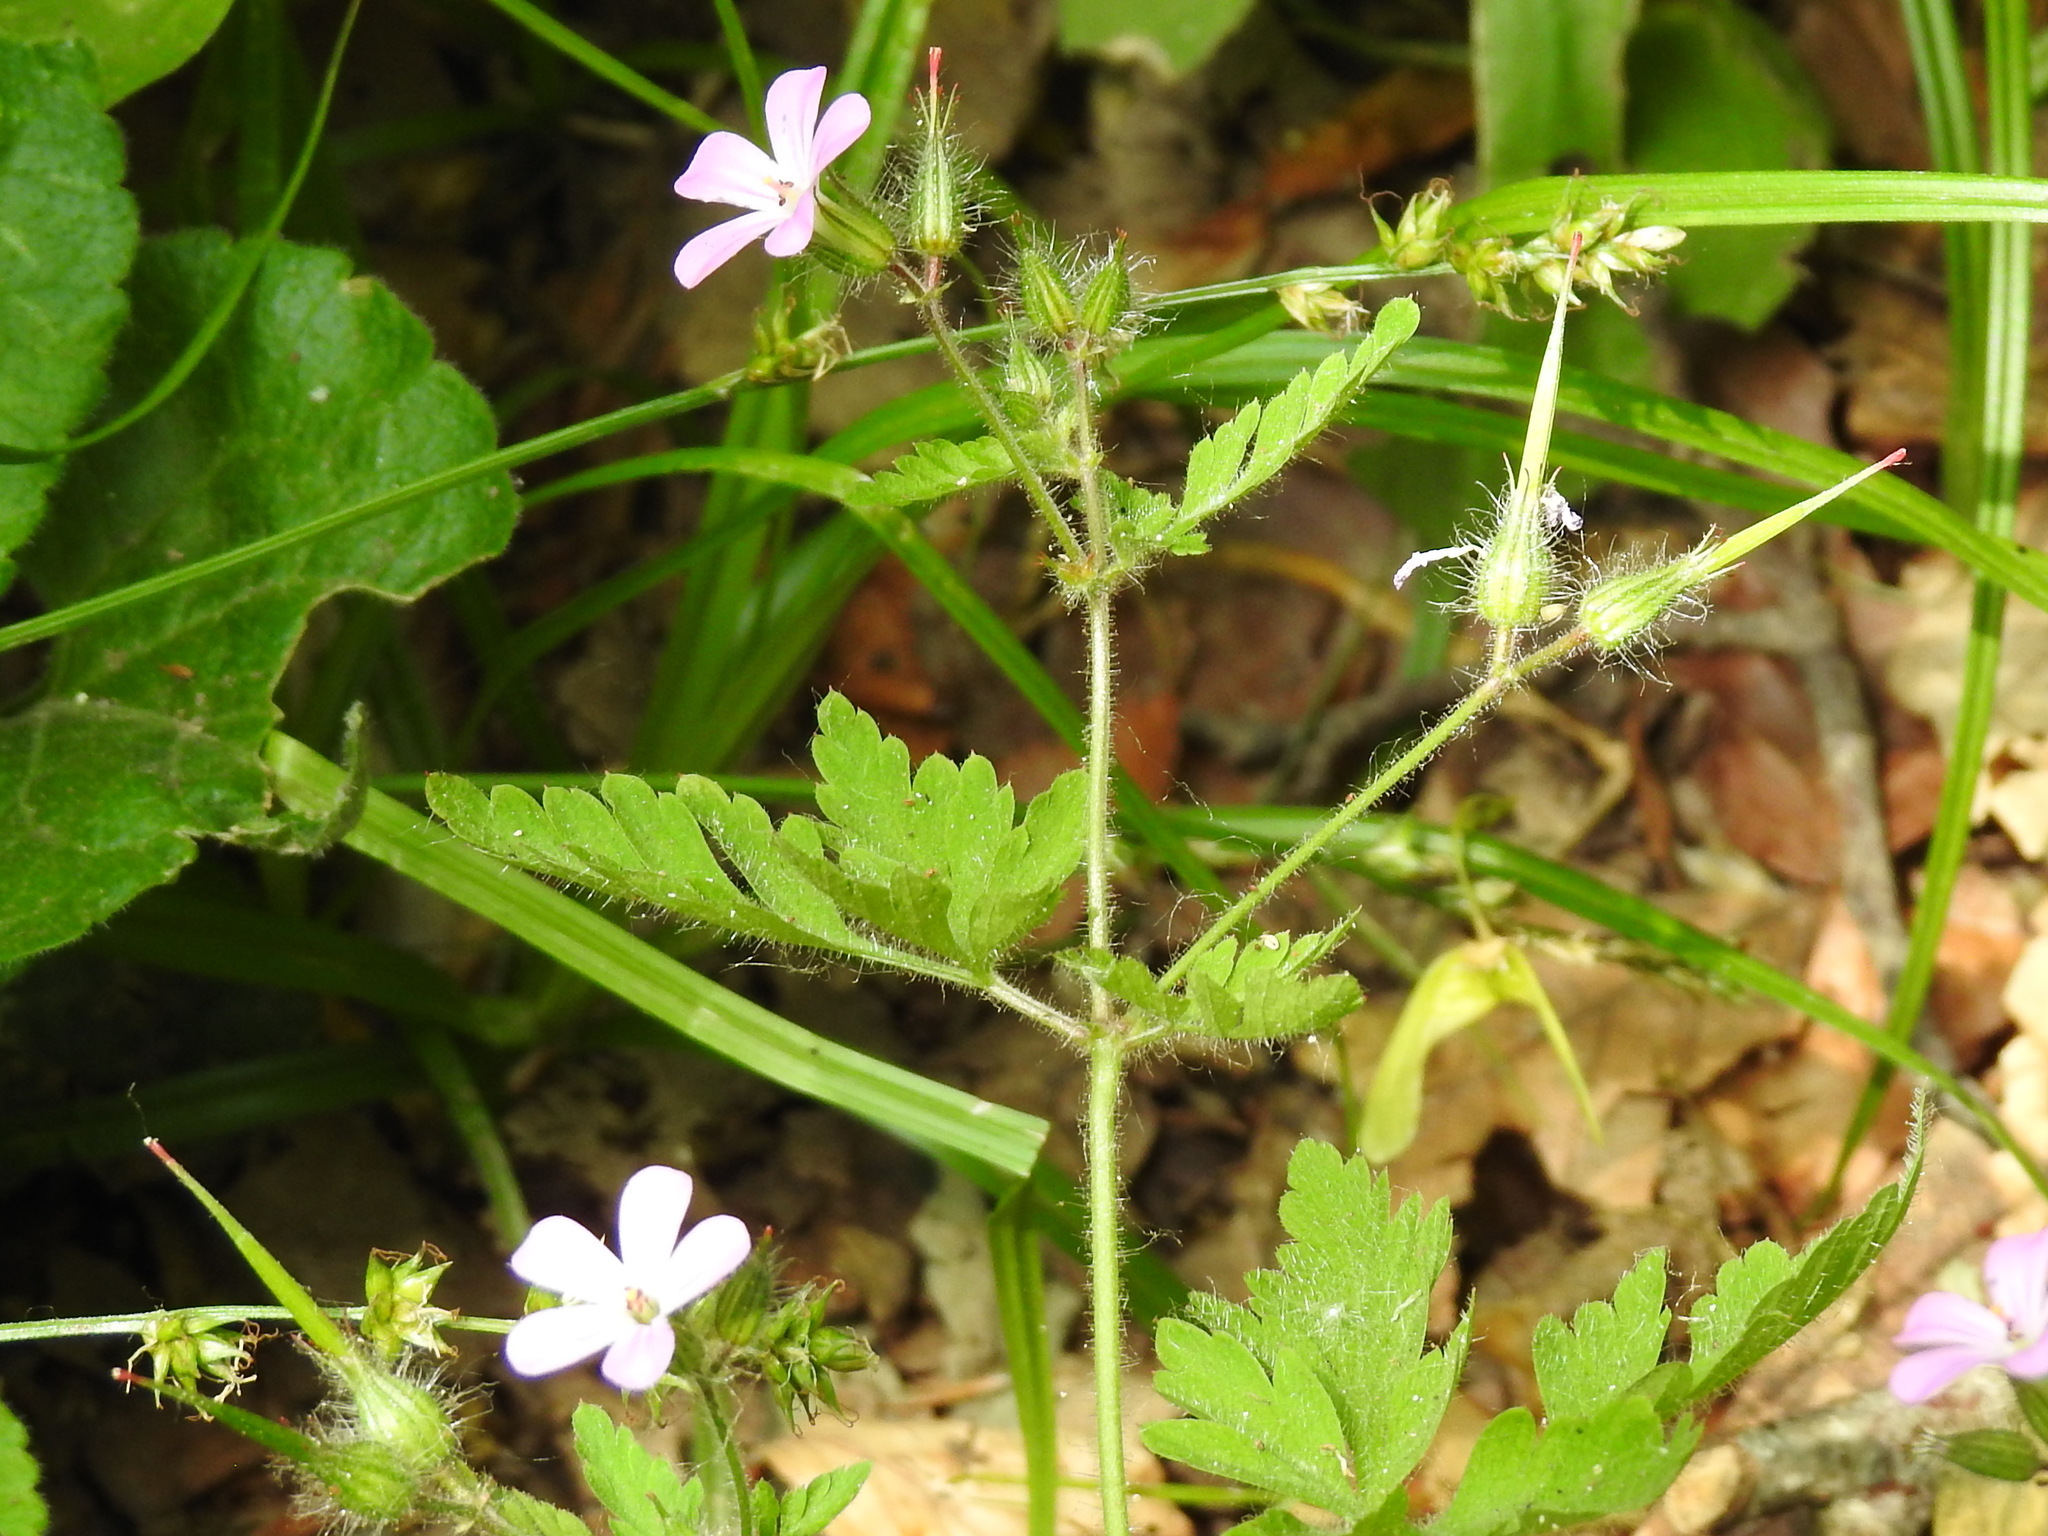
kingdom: Plantae
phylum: Tracheophyta
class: Magnoliopsida
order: Geraniales
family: Geraniaceae
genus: Geranium
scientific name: Geranium robertianum
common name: Herb-robert
